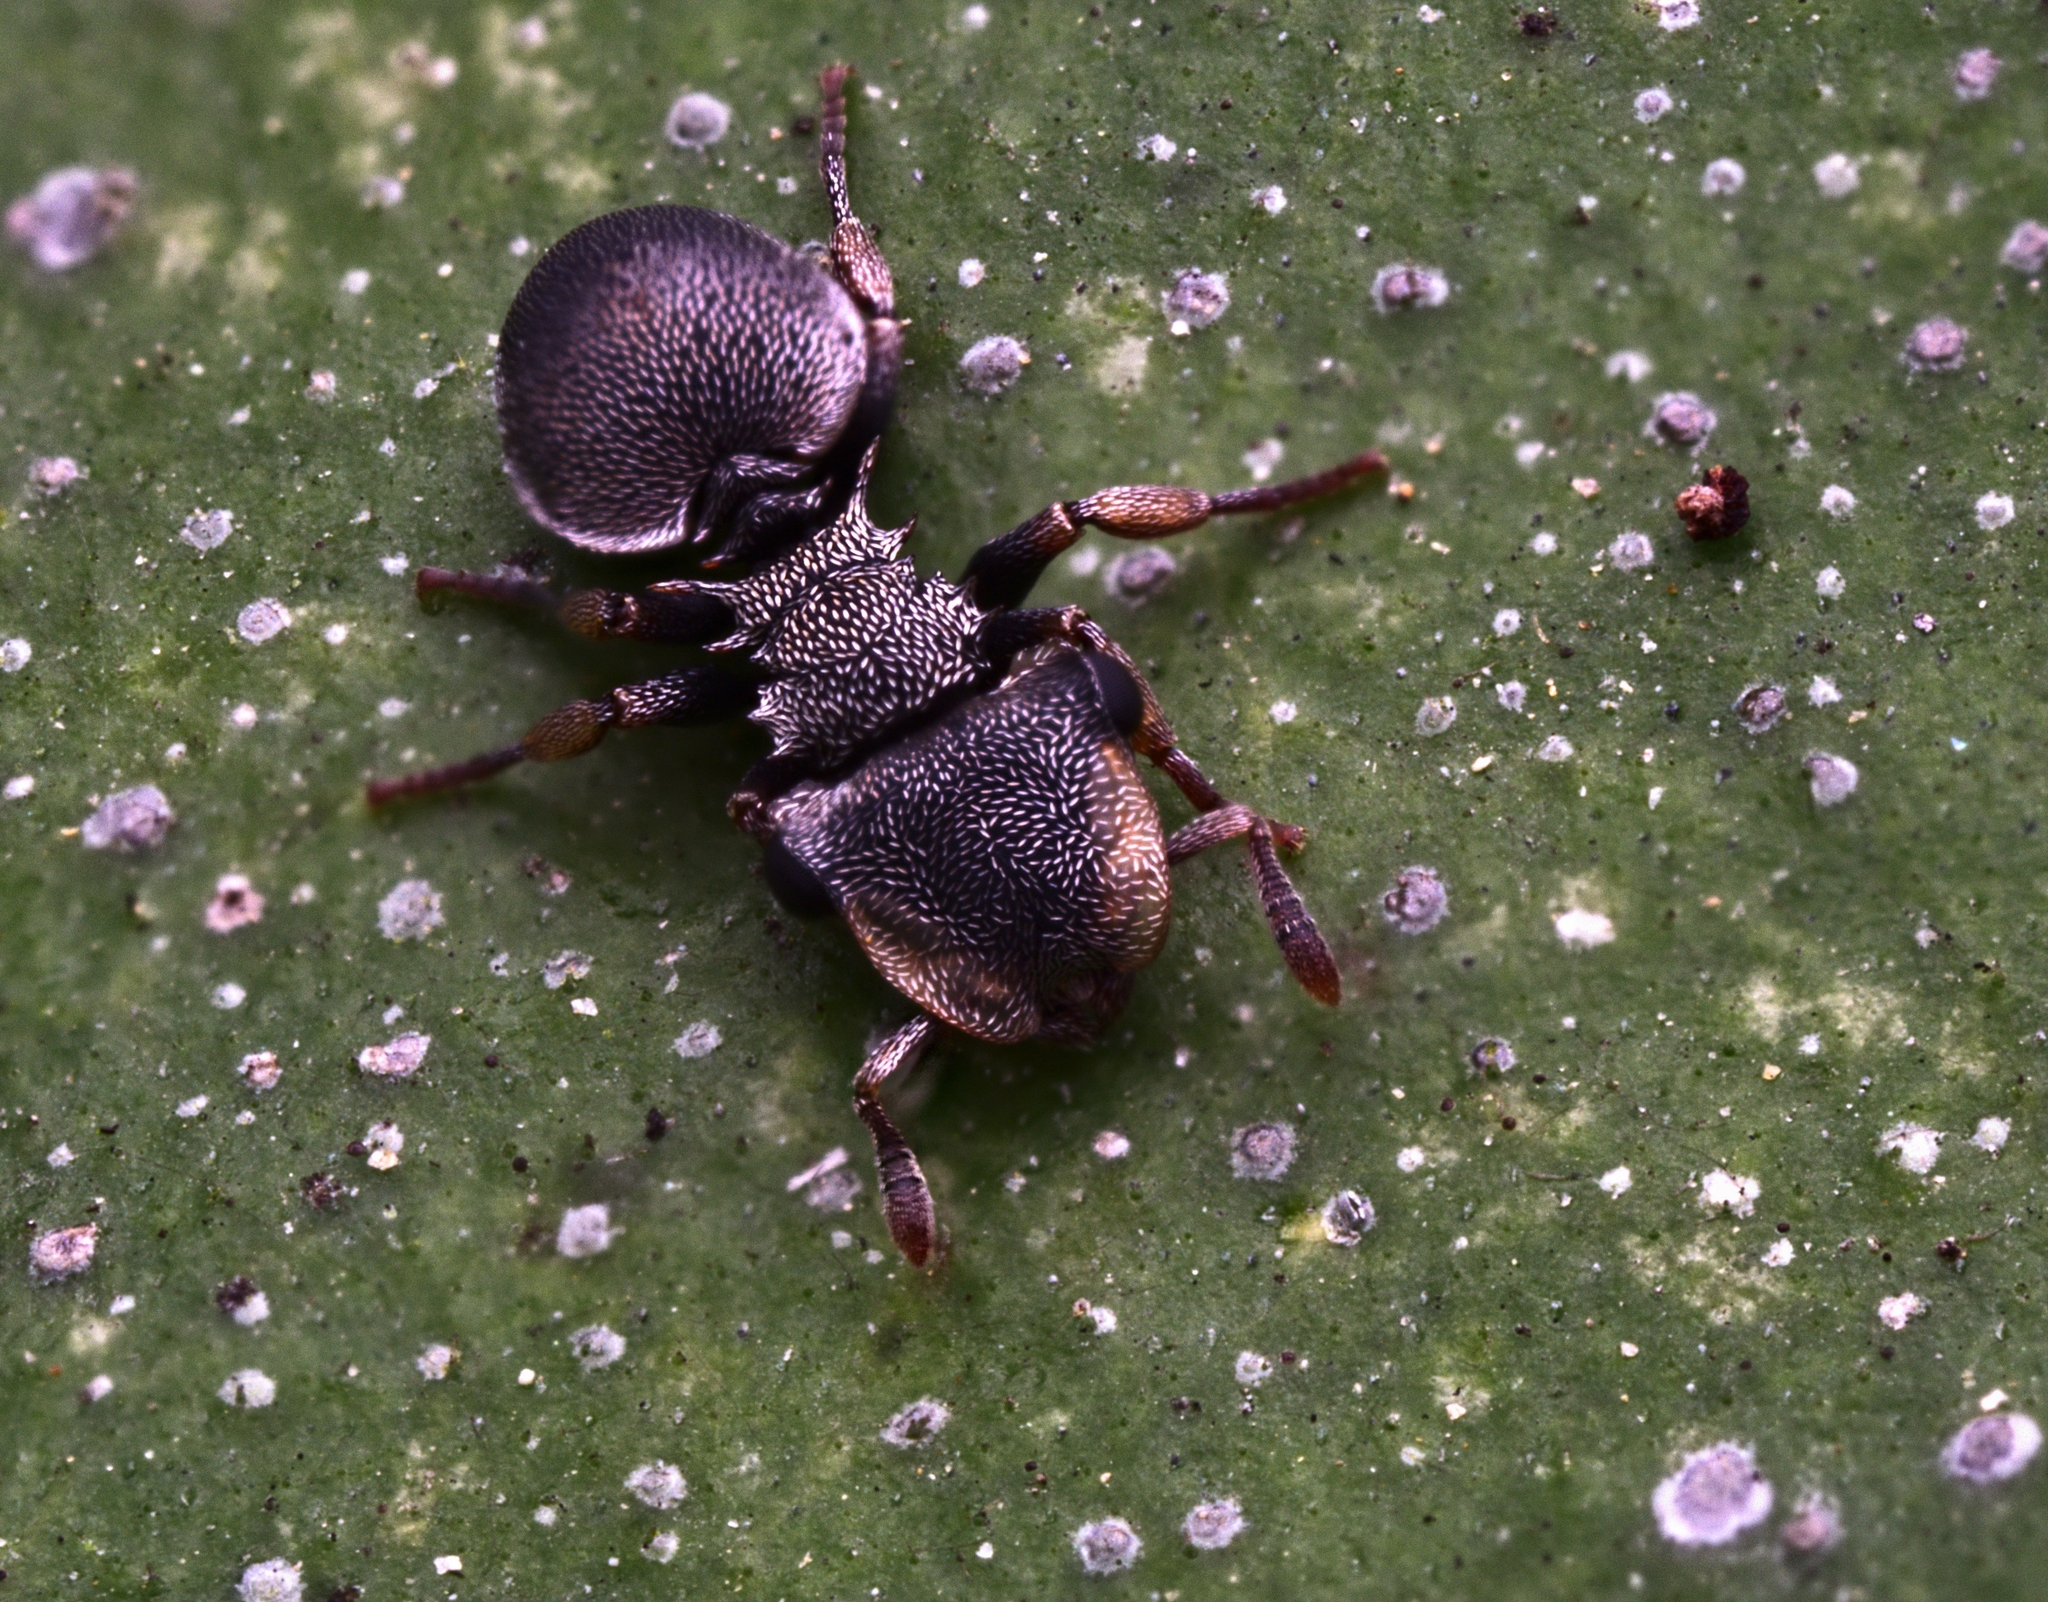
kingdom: Animalia
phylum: Arthropoda
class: Insecta
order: Hymenoptera
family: Formicidae
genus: Cephalotes
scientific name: Cephalotes minutus
